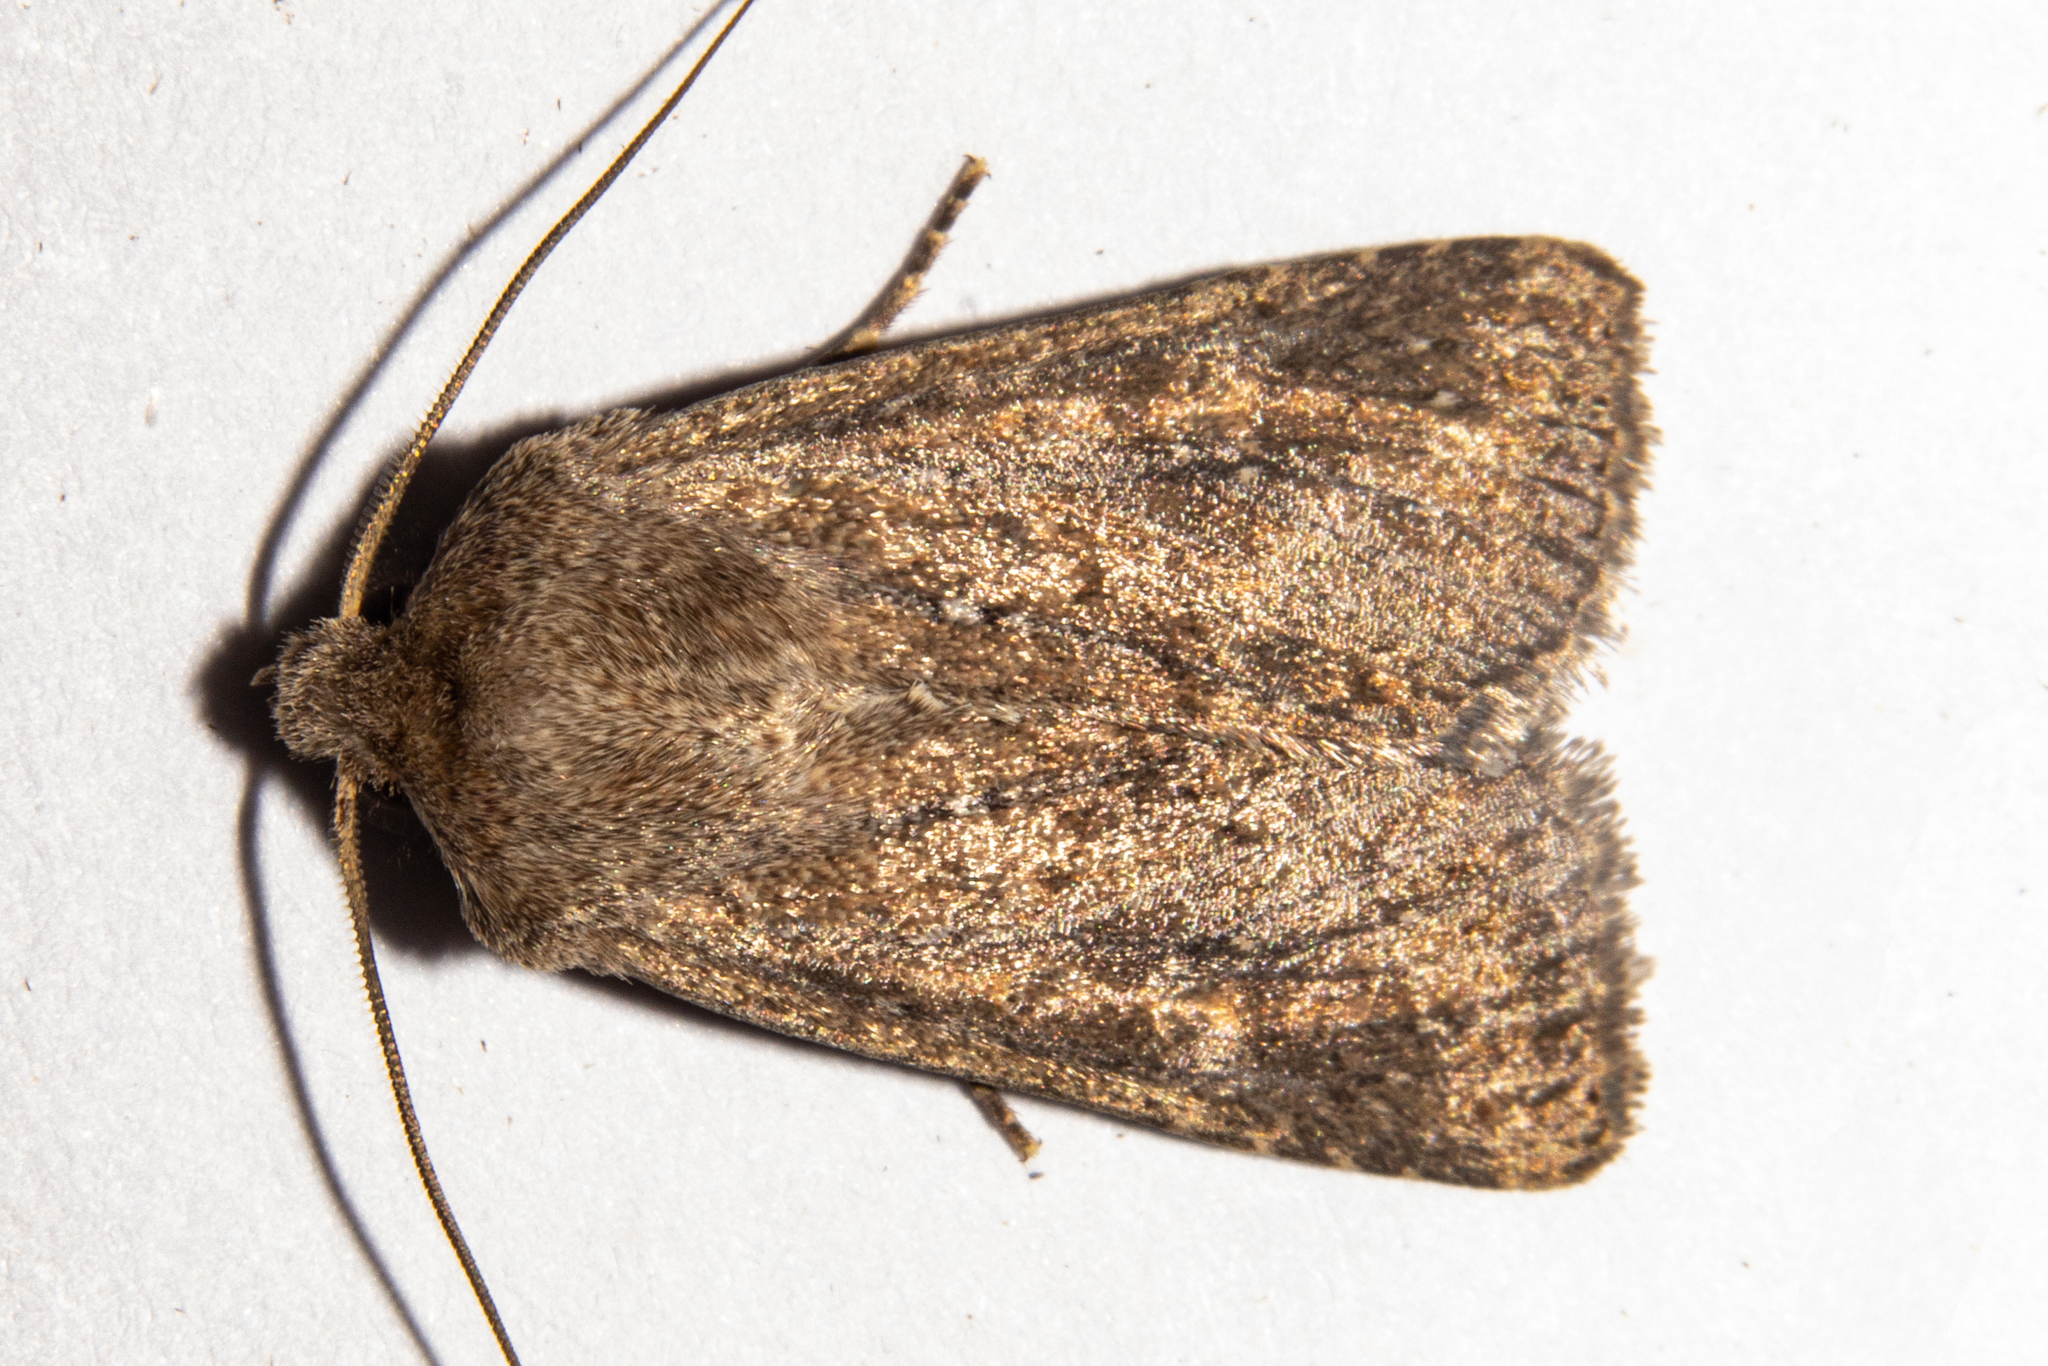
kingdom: Animalia
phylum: Arthropoda
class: Insecta
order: Lepidoptera
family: Noctuidae
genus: Physetica
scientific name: Physetica
